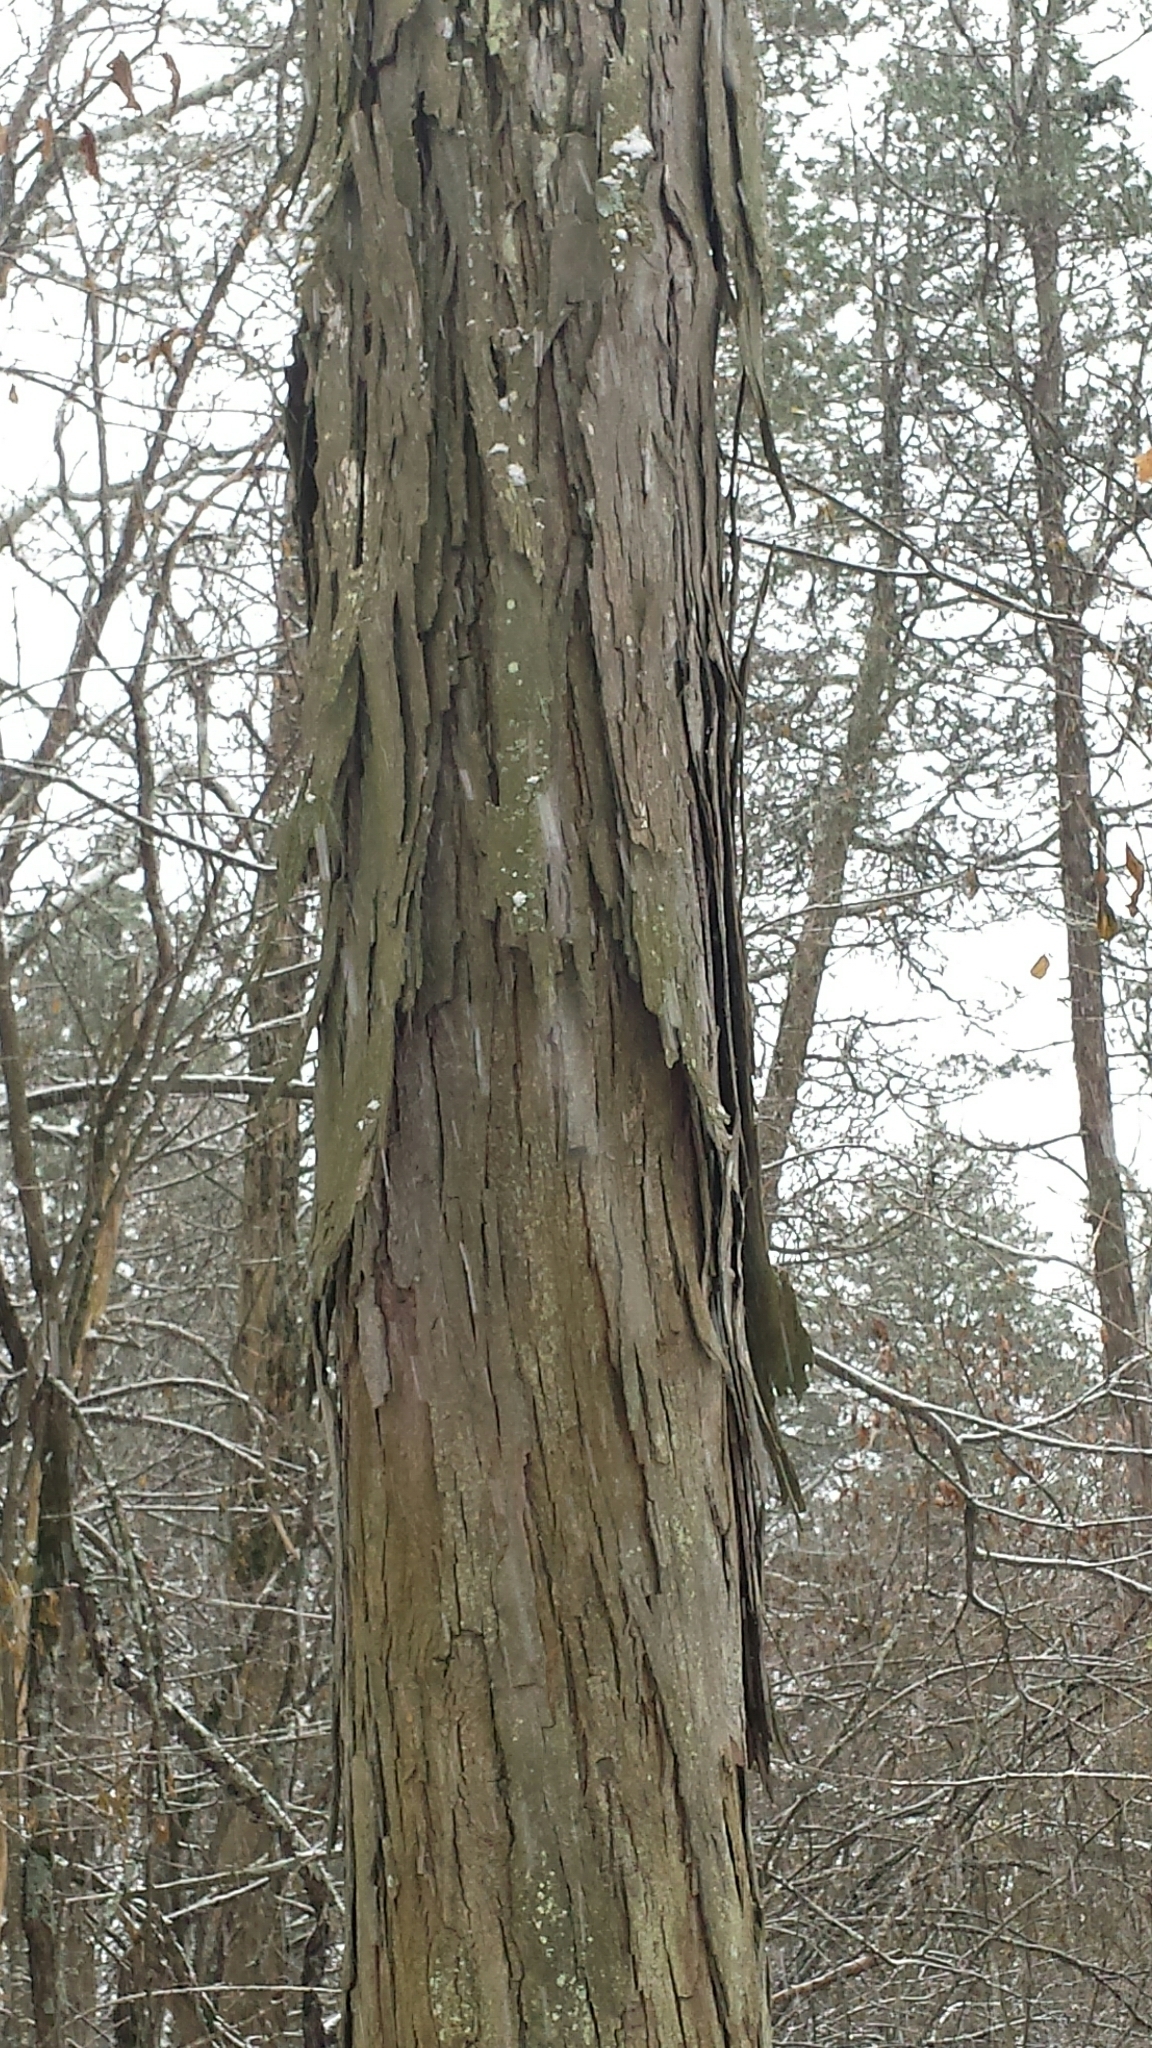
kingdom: Plantae
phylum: Tracheophyta
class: Magnoliopsida
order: Fagales
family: Juglandaceae
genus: Carya
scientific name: Carya ovata
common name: Shagbark hickory
